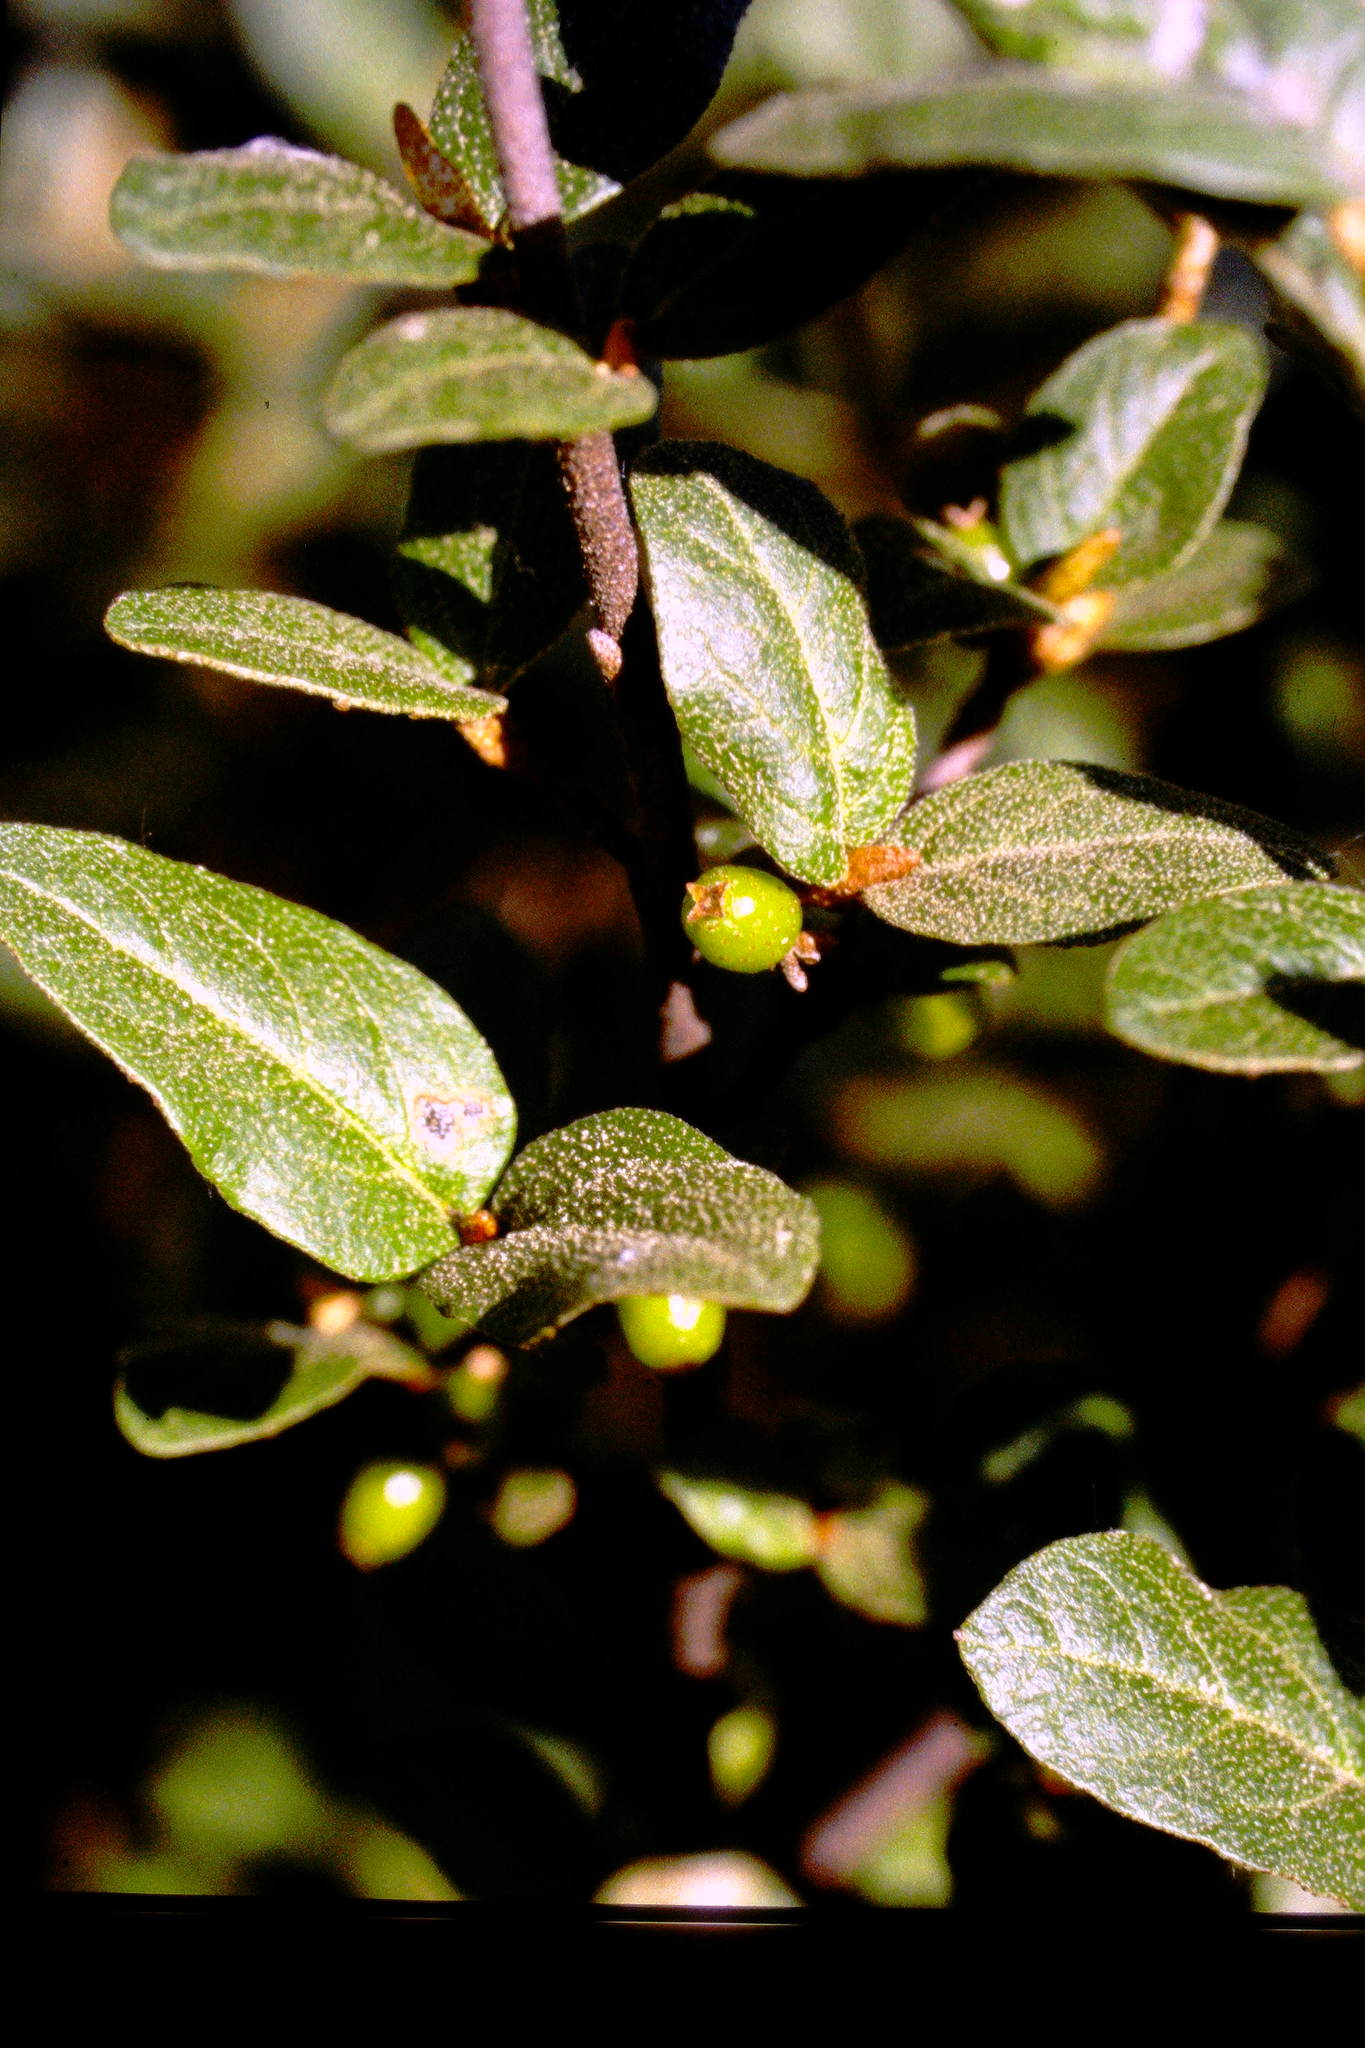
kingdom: Plantae
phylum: Tracheophyta
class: Magnoliopsida
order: Rosales
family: Elaeagnaceae
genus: Shepherdia
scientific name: Shepherdia canadensis
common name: Soapberry
